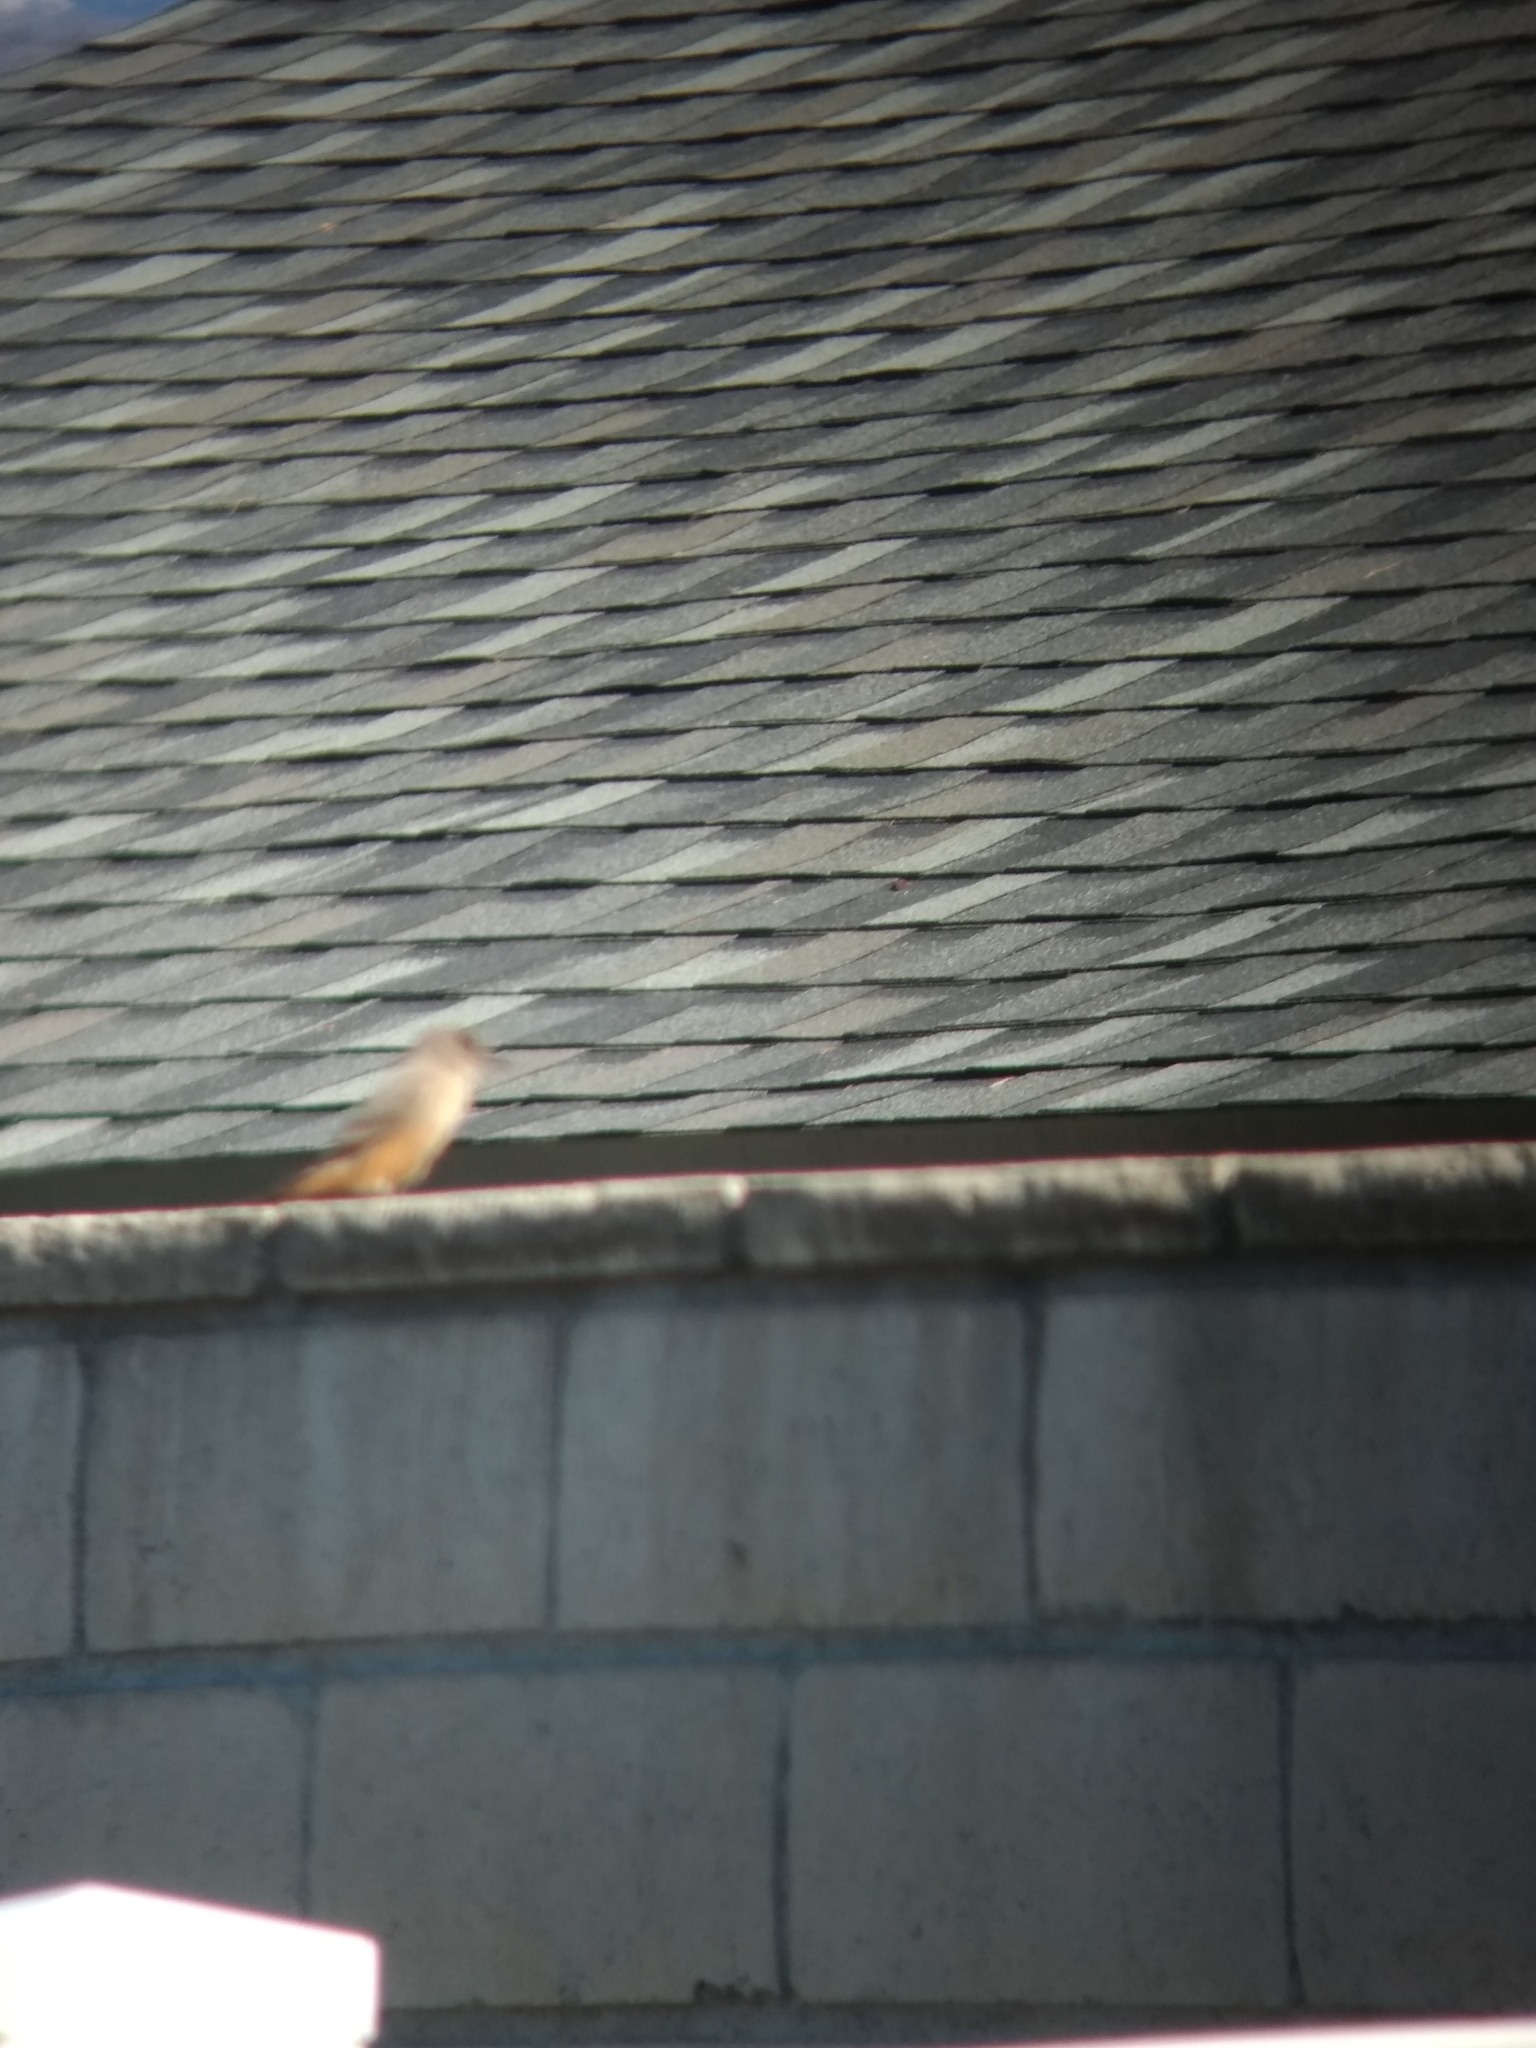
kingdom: Animalia
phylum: Chordata
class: Aves
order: Passeriformes
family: Tyrannidae
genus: Sayornis
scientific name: Sayornis saya
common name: Say's phoebe
